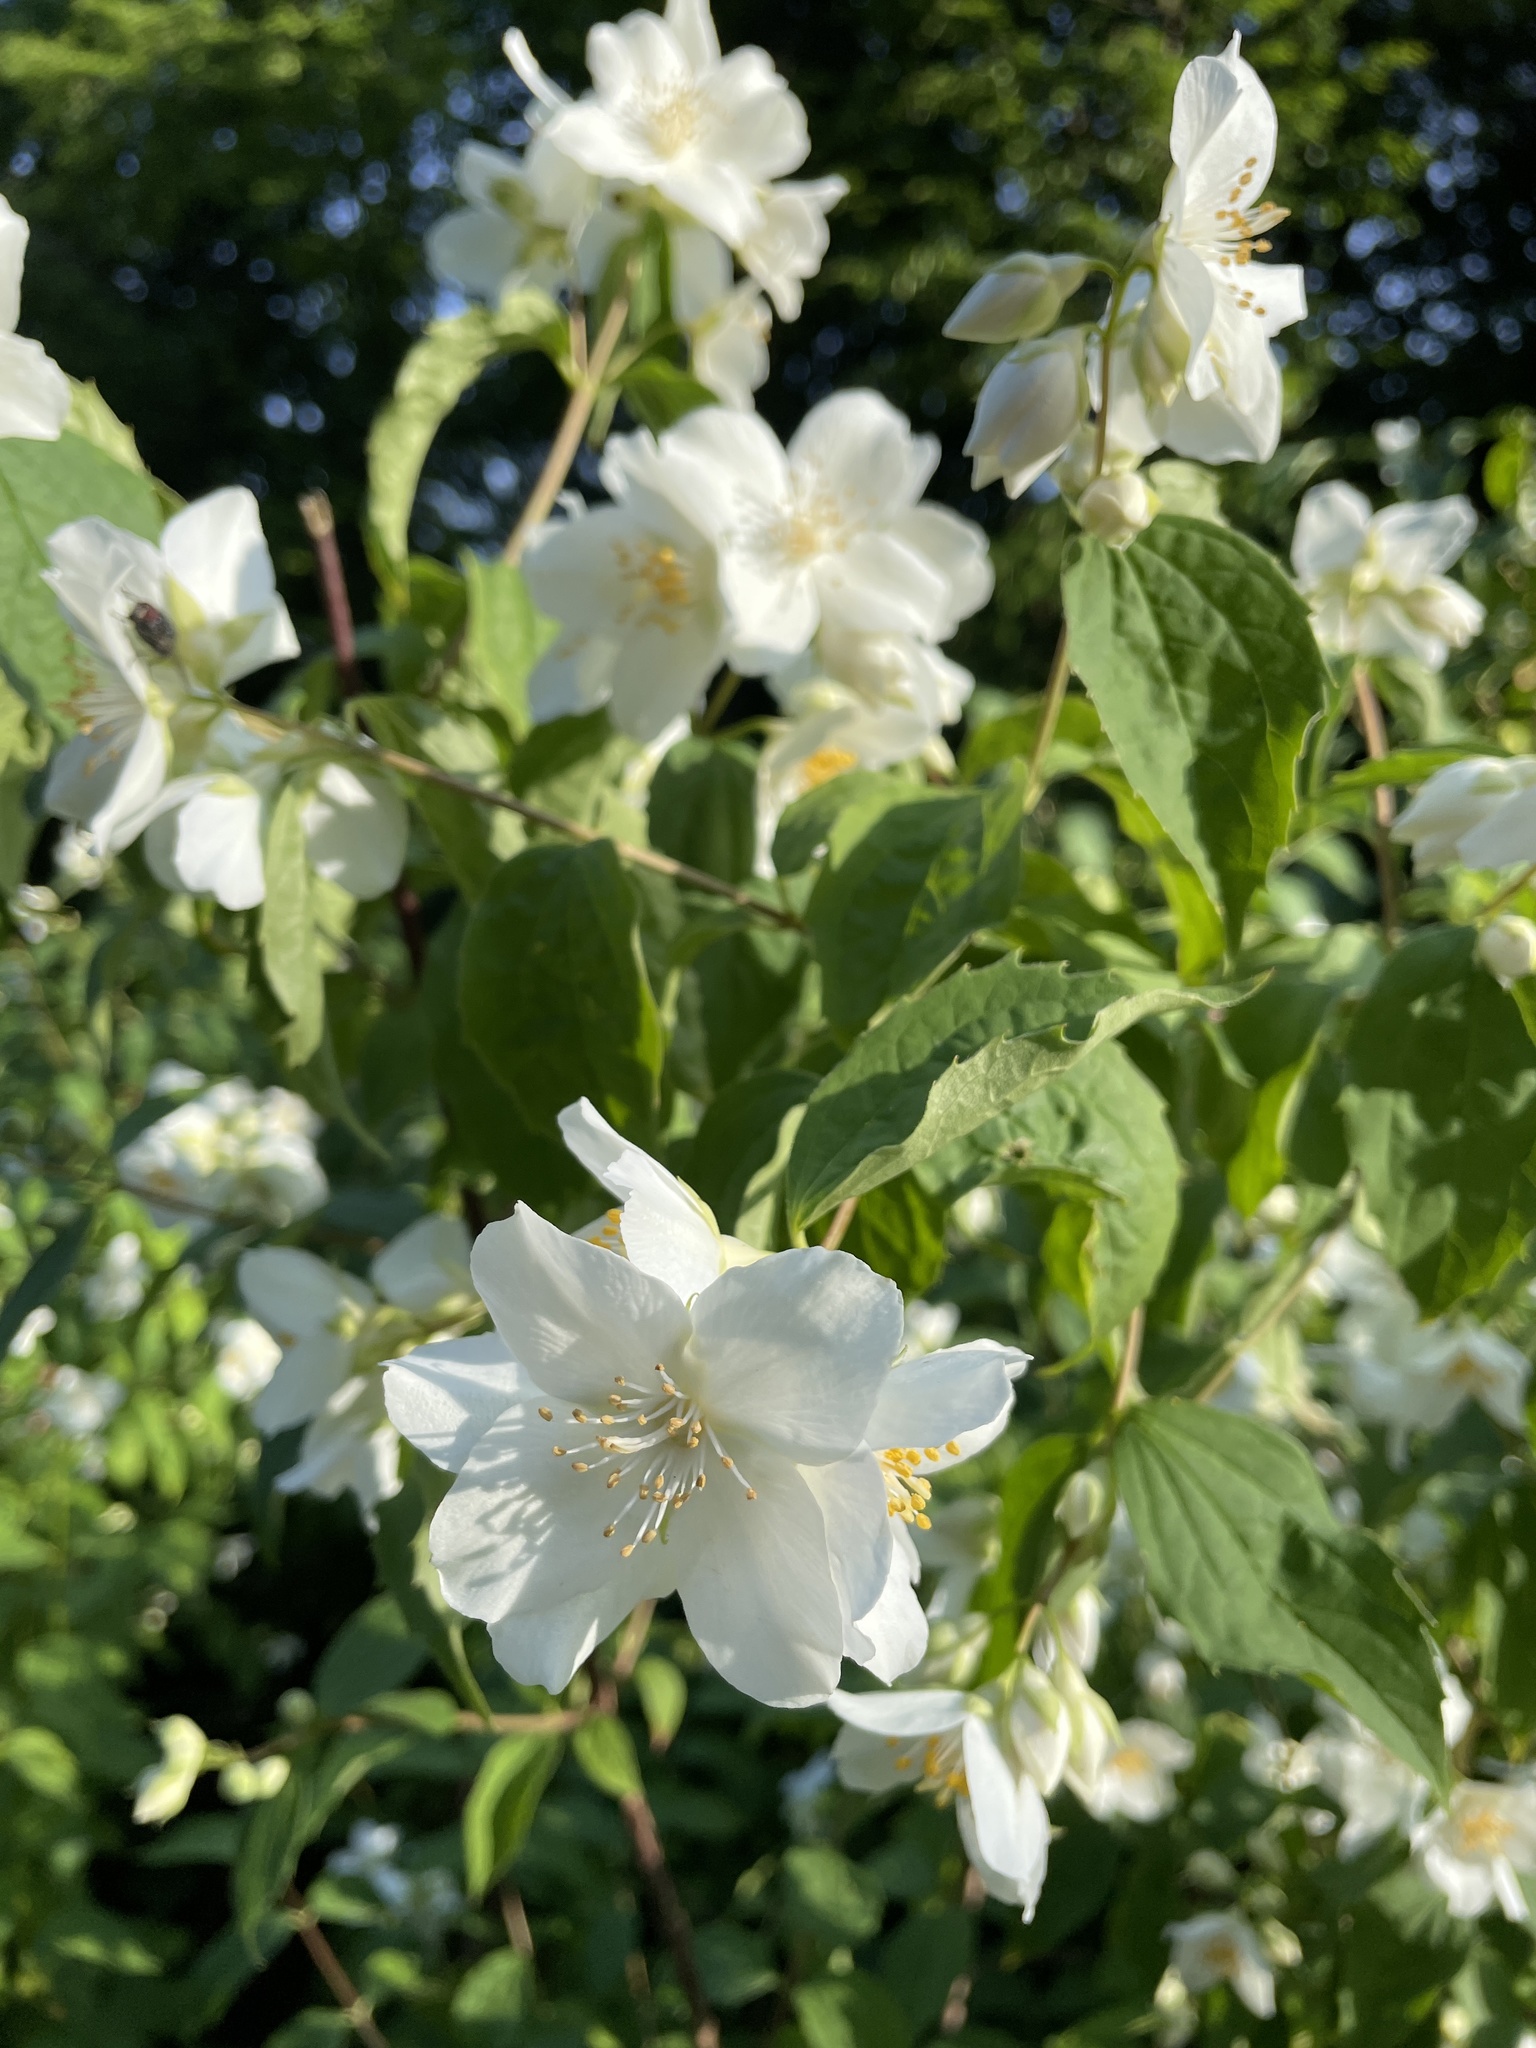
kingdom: Plantae
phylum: Tracheophyta
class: Magnoliopsida
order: Cornales
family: Hydrangeaceae
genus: Philadelphus
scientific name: Philadelphus coronarius
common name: Mock orange
